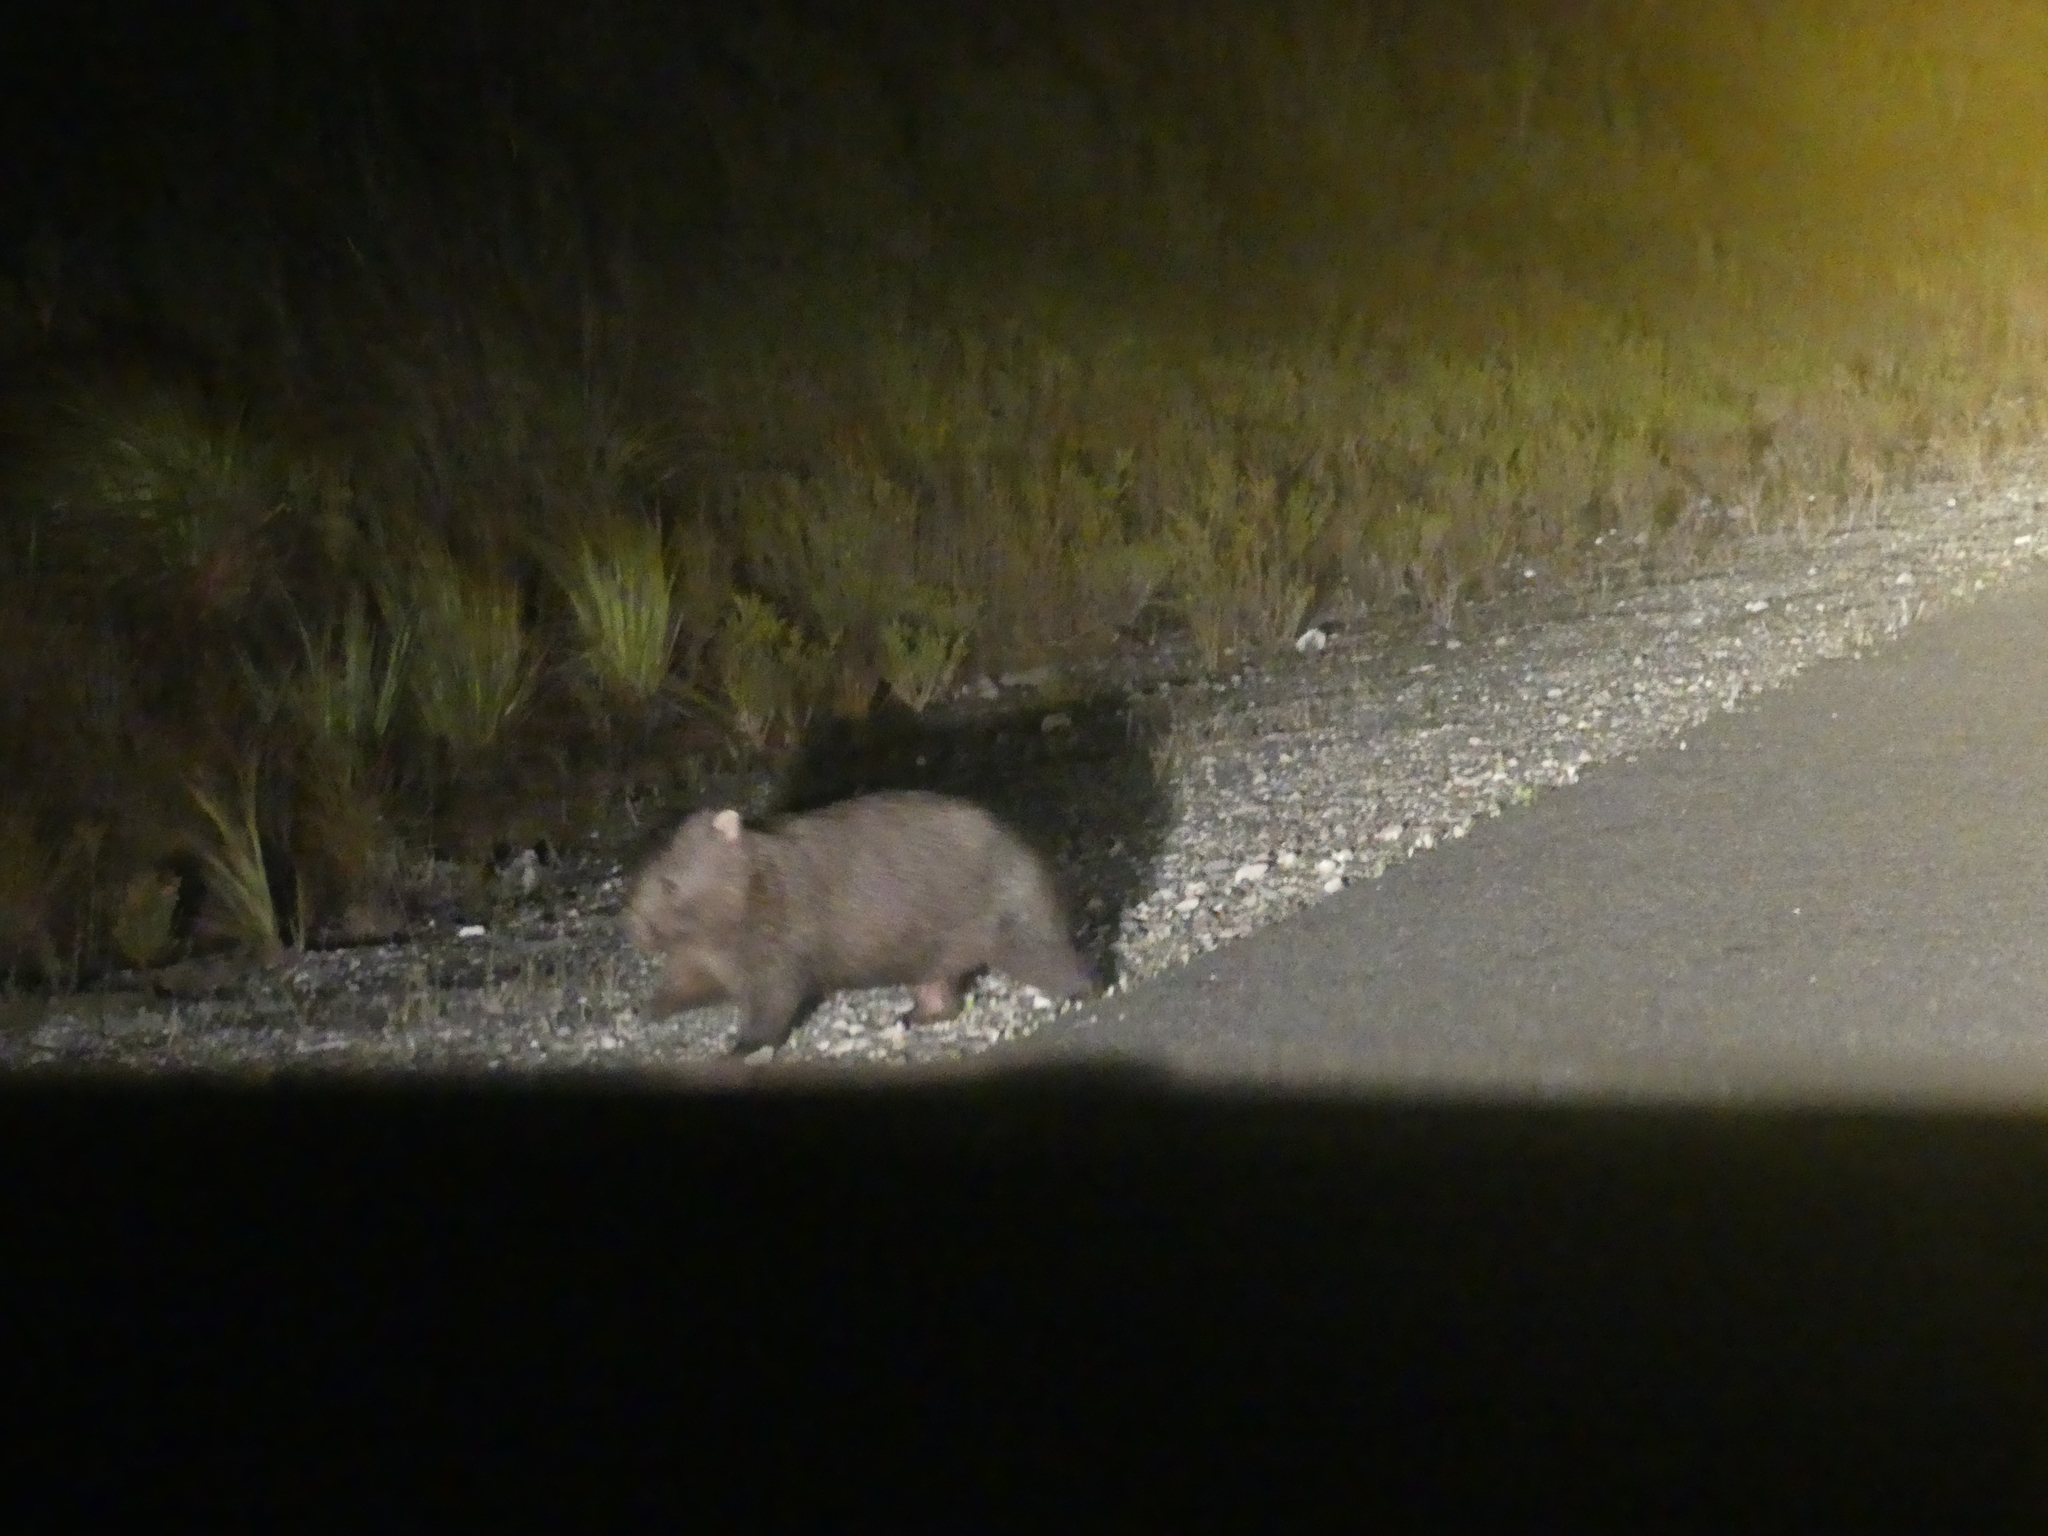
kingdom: Animalia
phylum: Chordata
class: Mammalia
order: Diprotodontia
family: Vombatidae
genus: Vombatus
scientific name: Vombatus ursinus
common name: Common wombat
